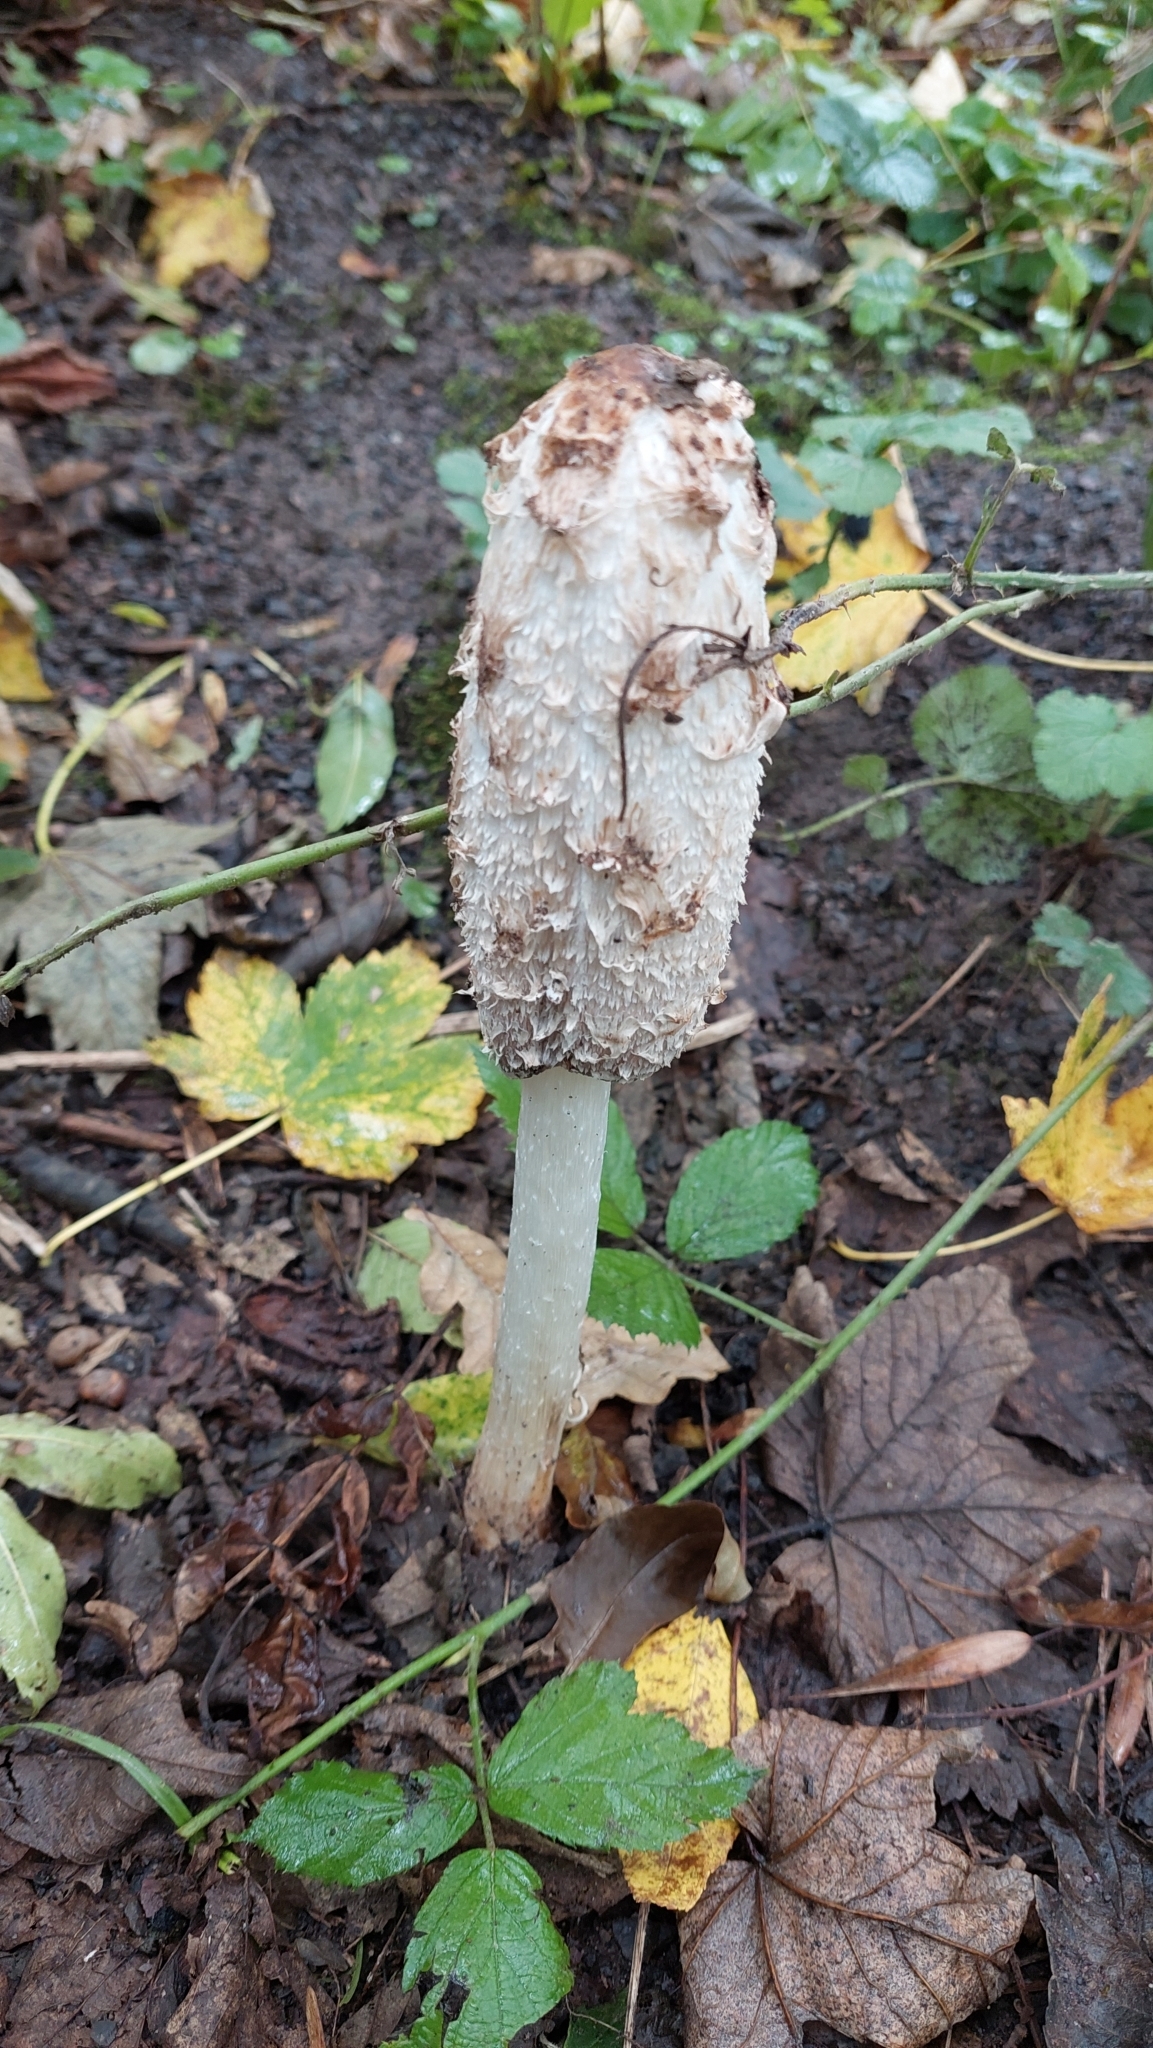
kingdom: Fungi
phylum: Basidiomycota
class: Agaricomycetes
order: Agaricales
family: Agaricaceae
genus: Coprinus
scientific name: Coprinus comatus
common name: Lawyer's wig
